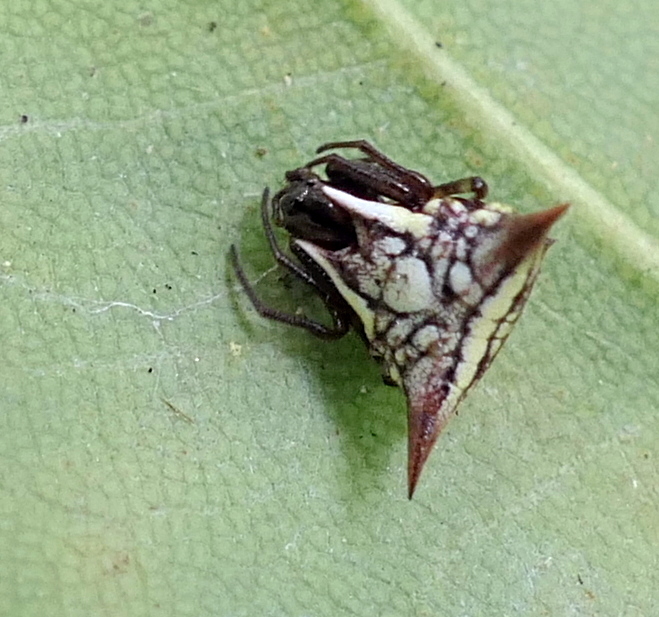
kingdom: Animalia
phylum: Arthropoda
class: Arachnida
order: Araneae
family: Araneidae
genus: Micrathena
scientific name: Micrathena evansi
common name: Orb weavers
